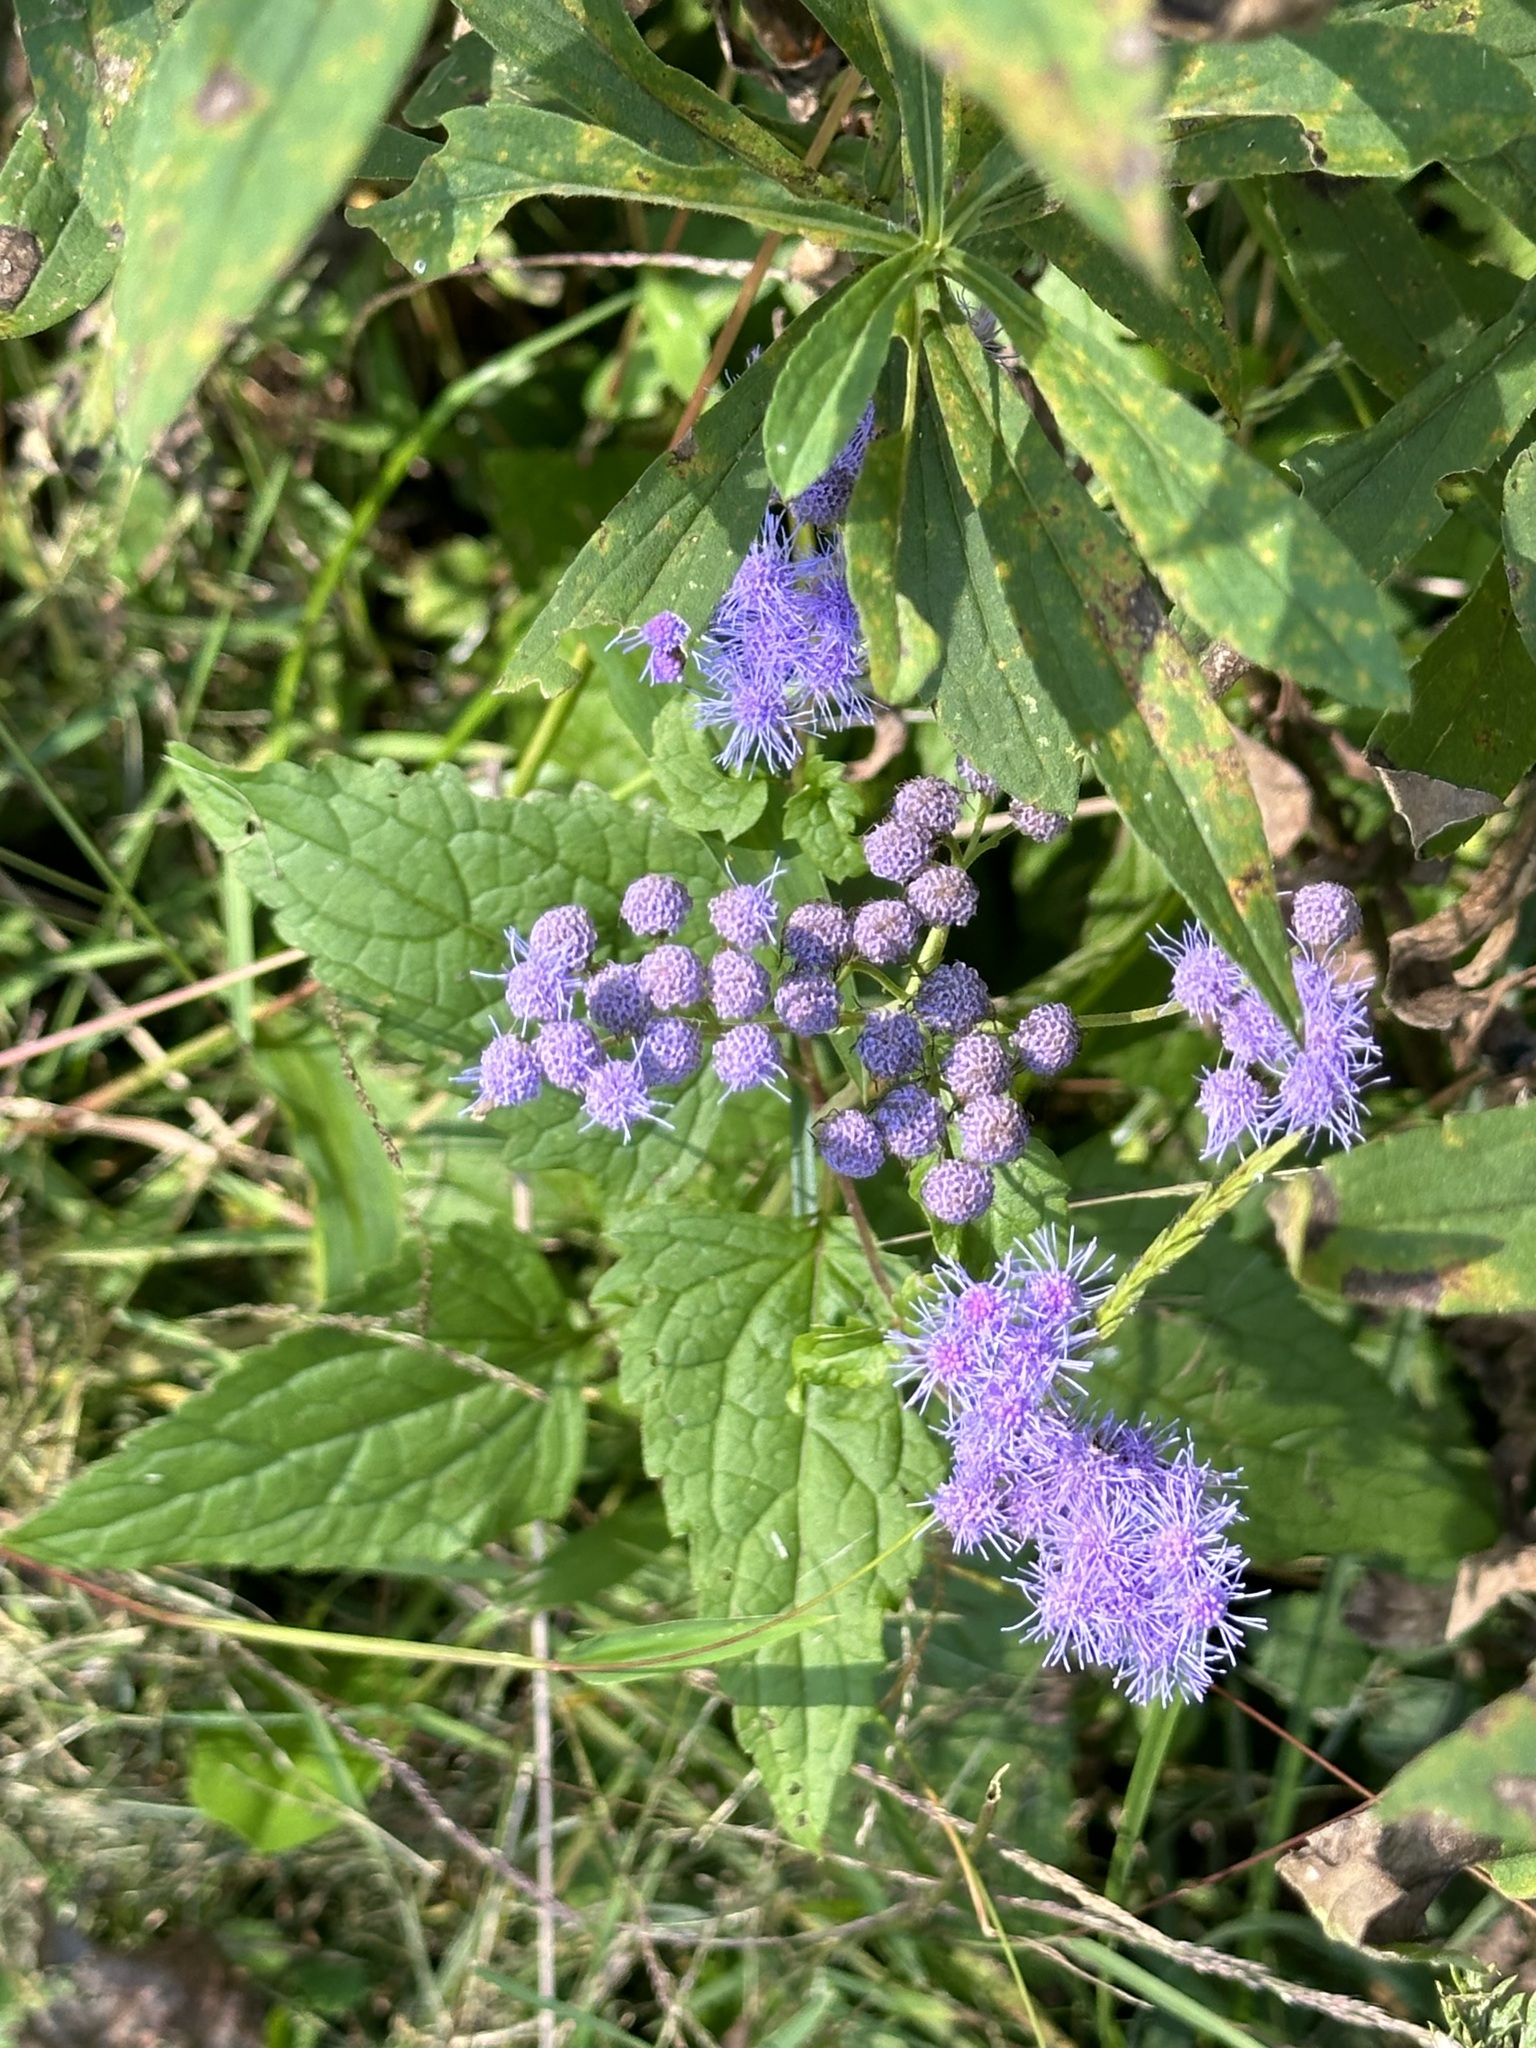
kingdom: Plantae
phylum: Tracheophyta
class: Magnoliopsida
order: Asterales
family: Asteraceae
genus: Conoclinium
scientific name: Conoclinium coelestinum
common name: Blue mistflower
